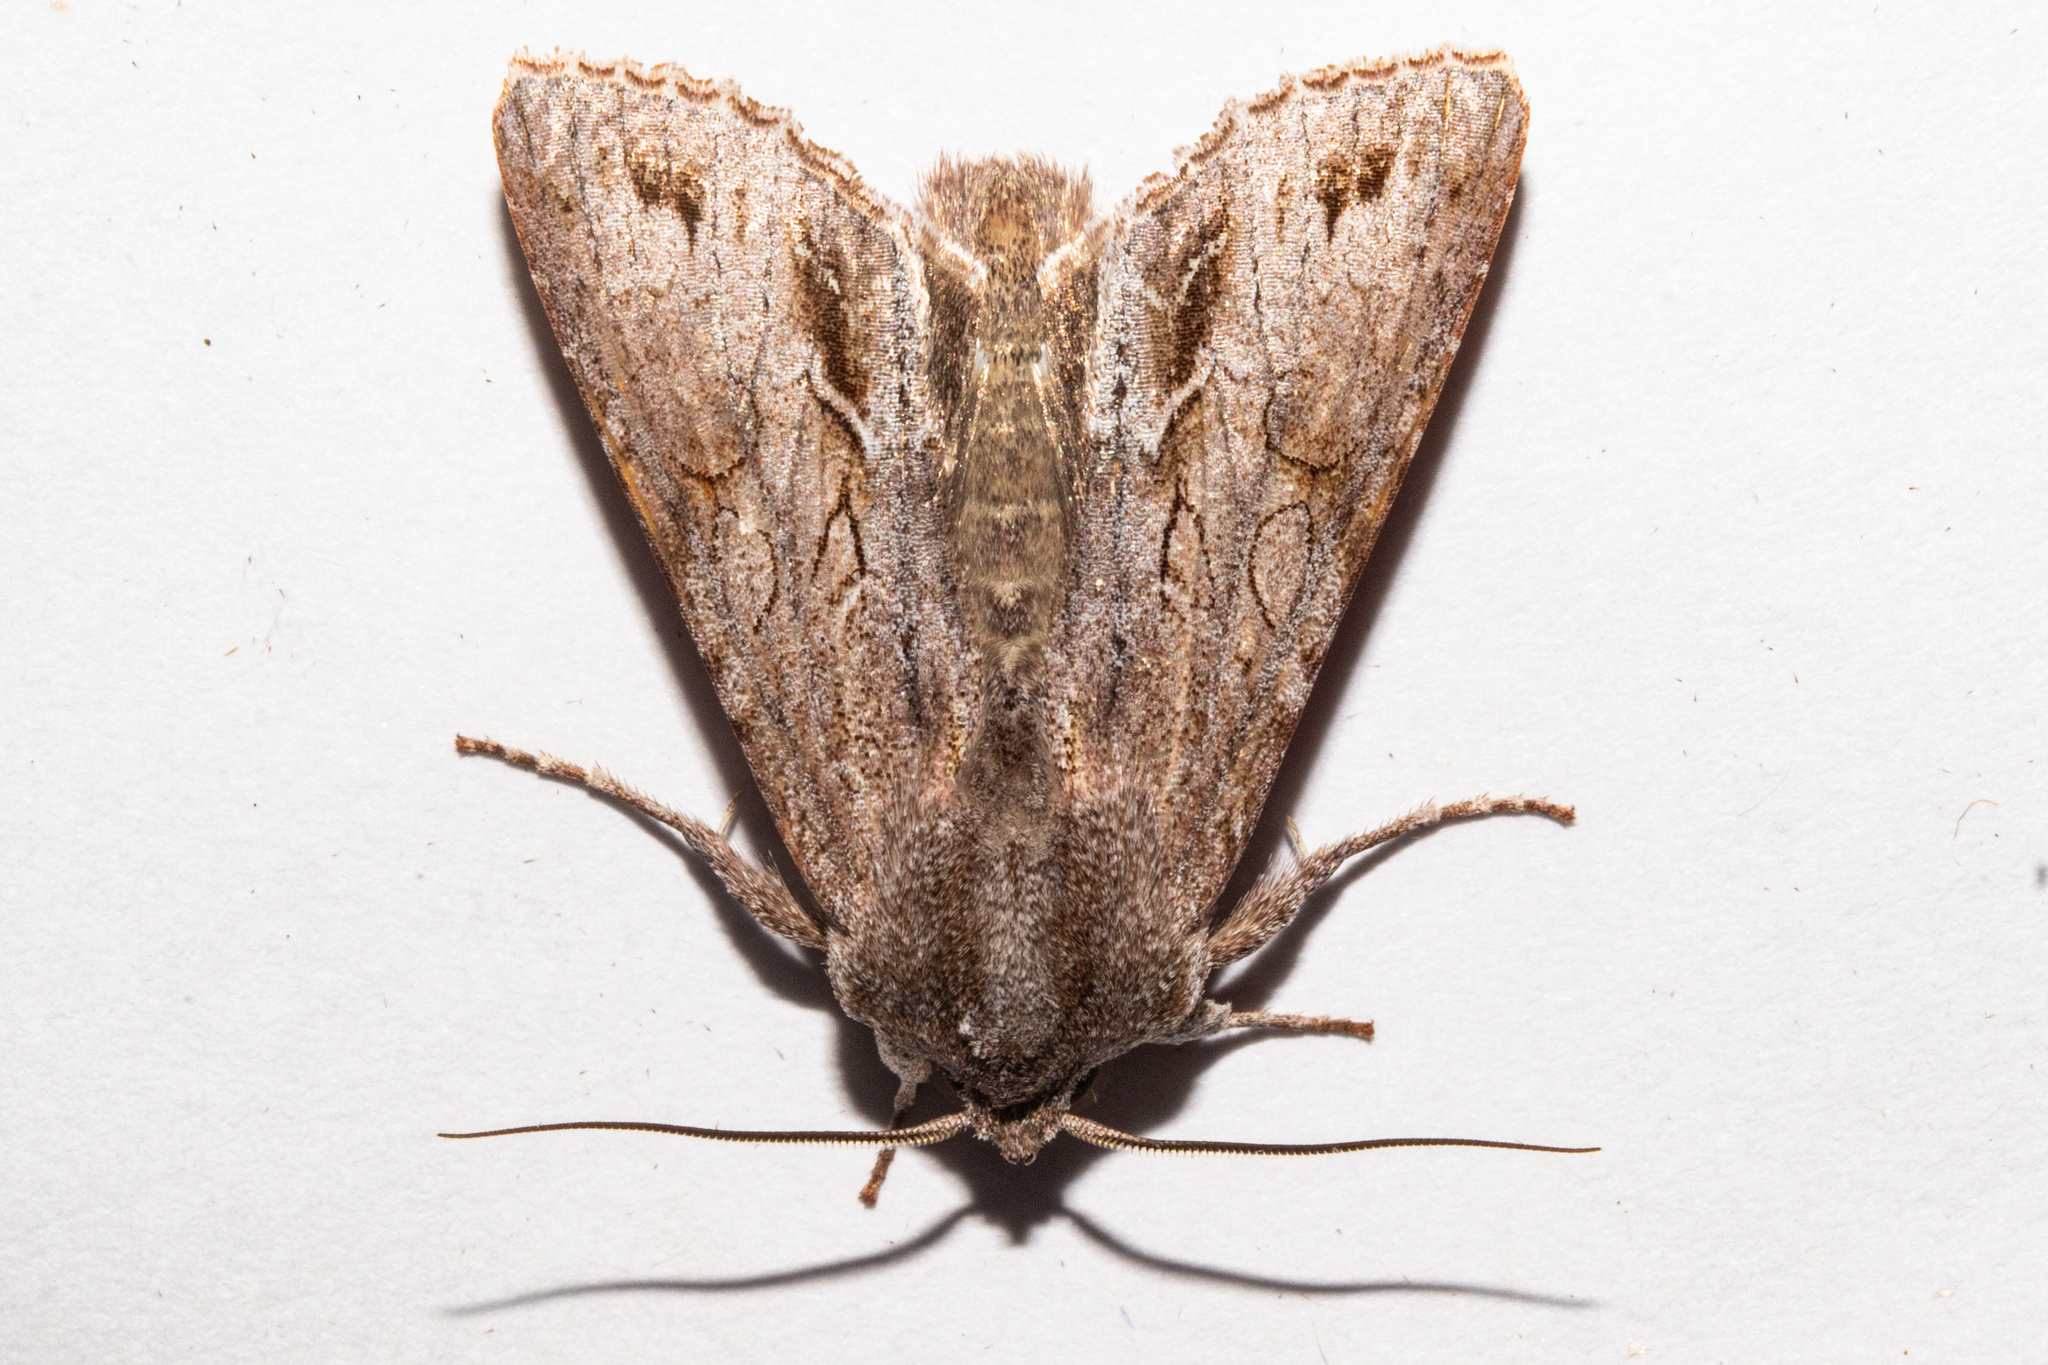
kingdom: Animalia
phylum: Arthropoda
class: Insecta
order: Lepidoptera
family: Noctuidae
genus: Ichneutica
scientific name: Ichneutica
